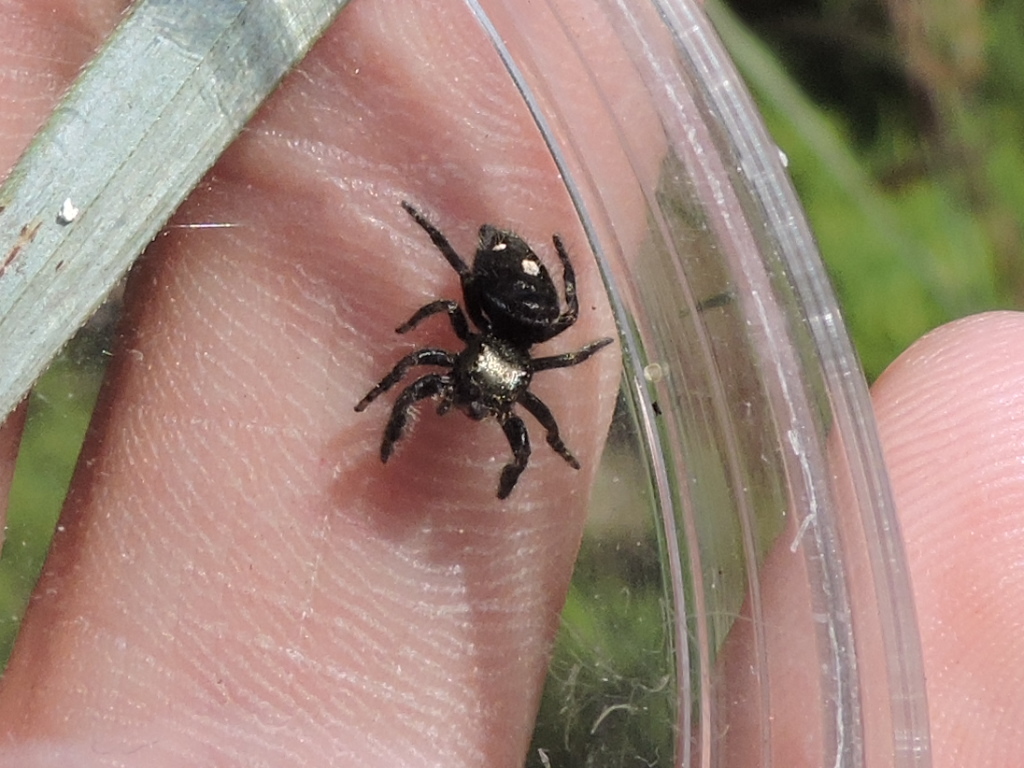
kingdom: Animalia
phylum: Arthropoda
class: Arachnida
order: Araneae
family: Salticidae
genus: Phidippus
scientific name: Phidippus audax
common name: Bold jumper
